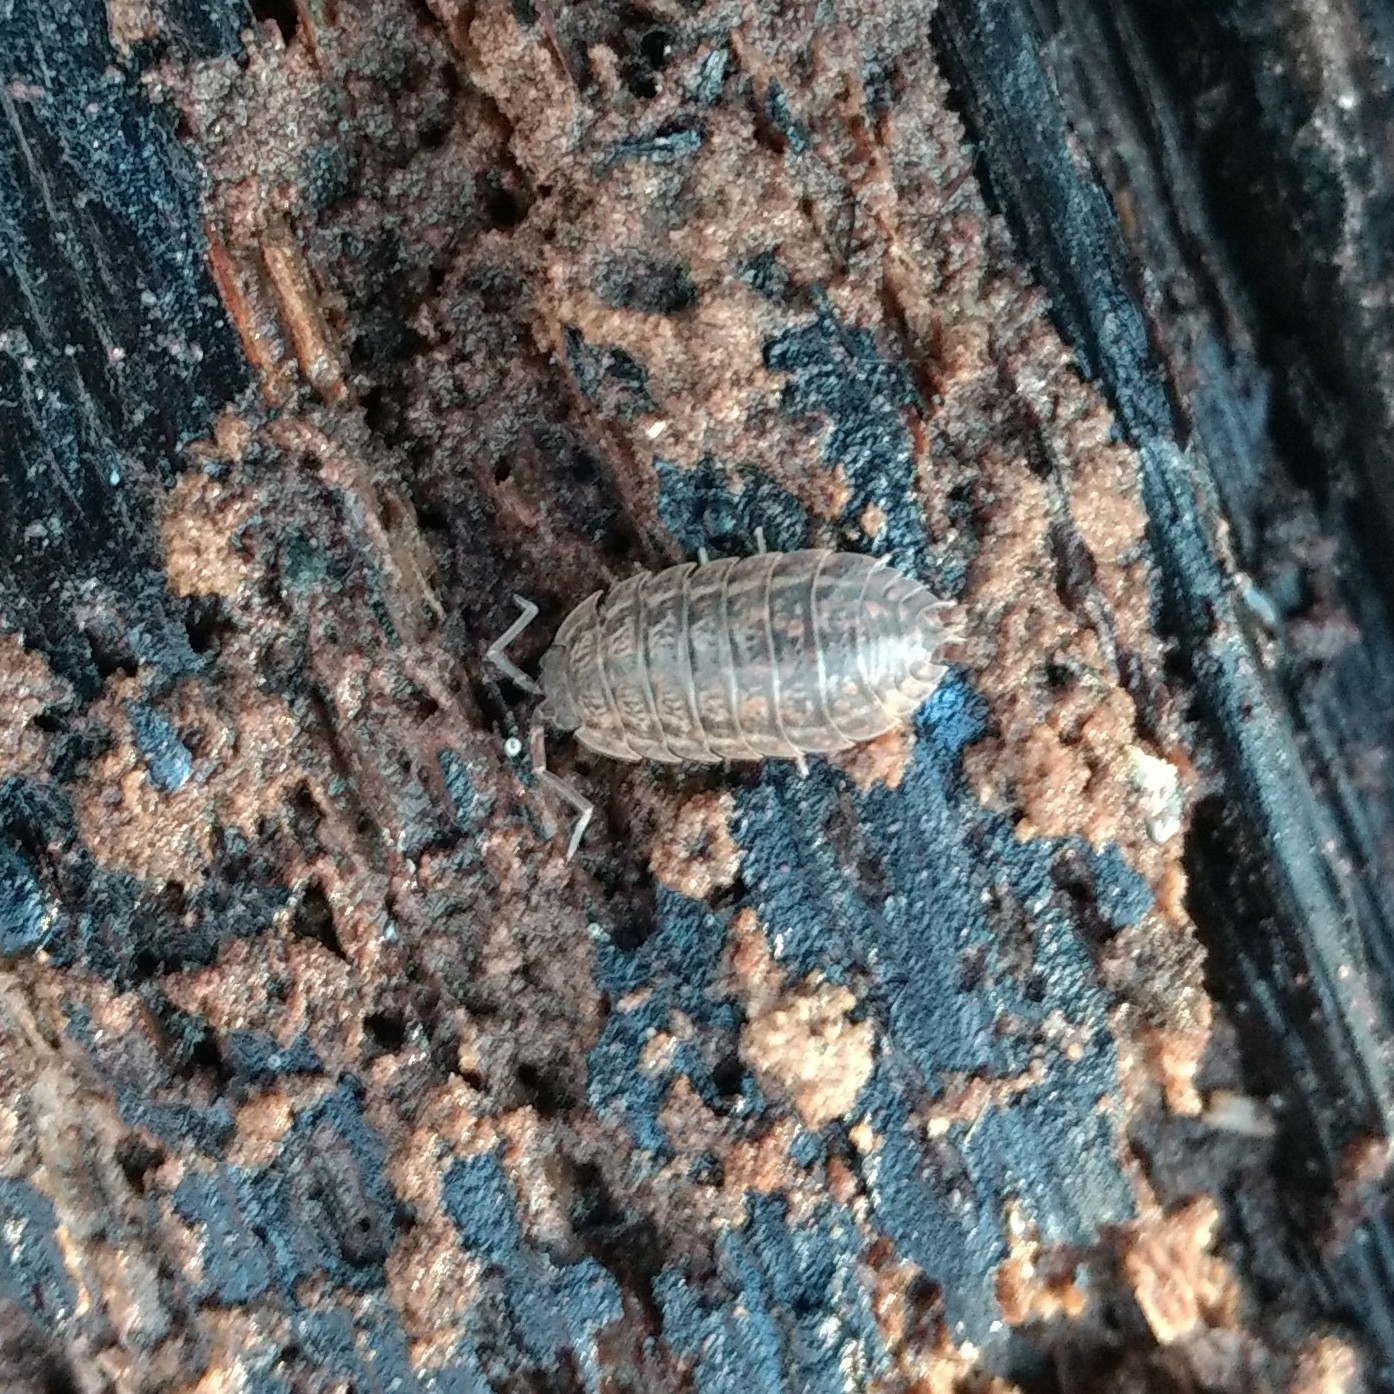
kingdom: Animalia
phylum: Arthropoda
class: Malacostraca
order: Isopoda
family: Trachelipodidae
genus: Trachelipus
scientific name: Trachelipus rathkii
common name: Isopod
